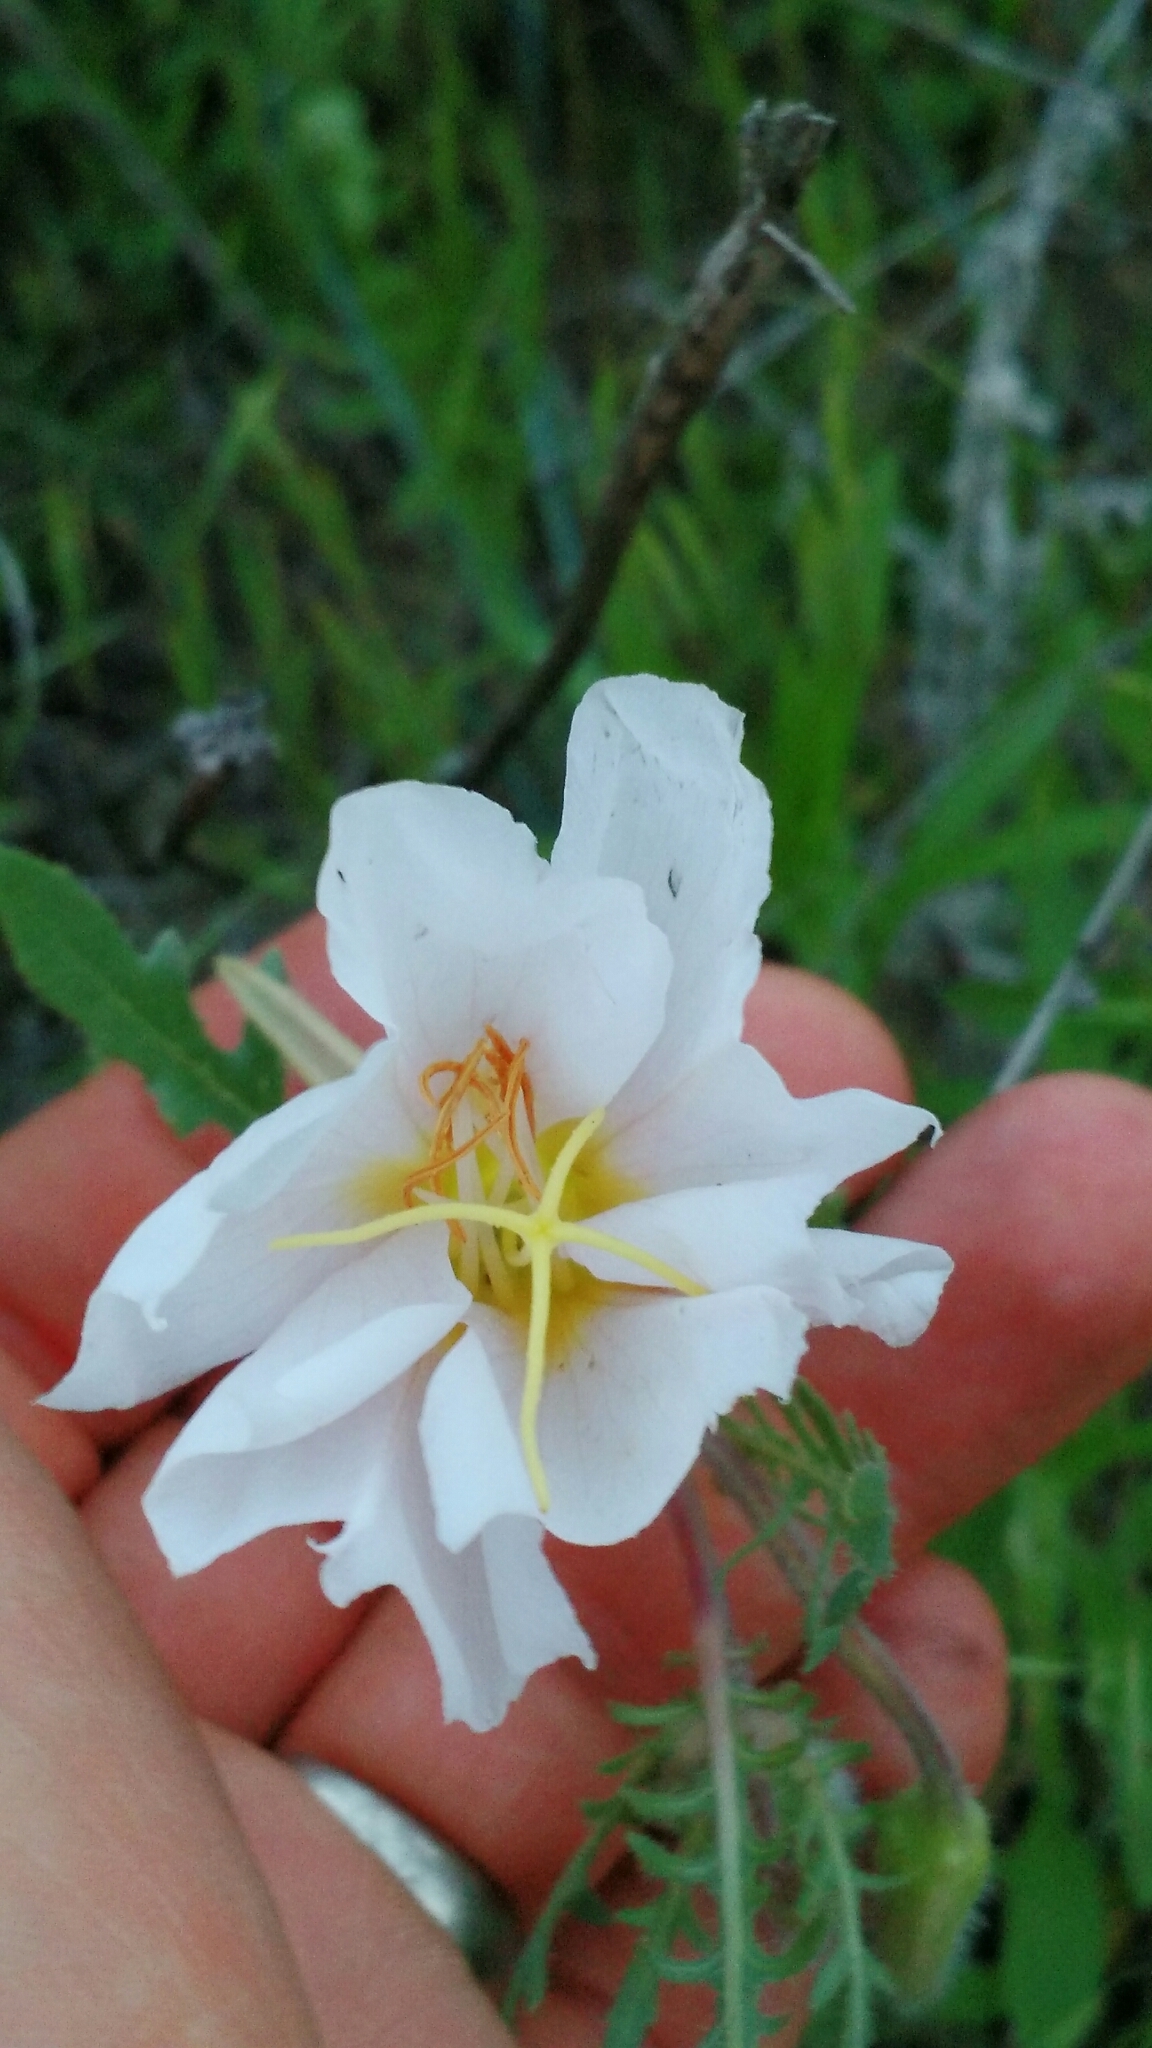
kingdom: Plantae
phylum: Tracheophyta
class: Magnoliopsida
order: Myrtales
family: Onagraceae
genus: Oenothera
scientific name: Oenothera albicaulis
